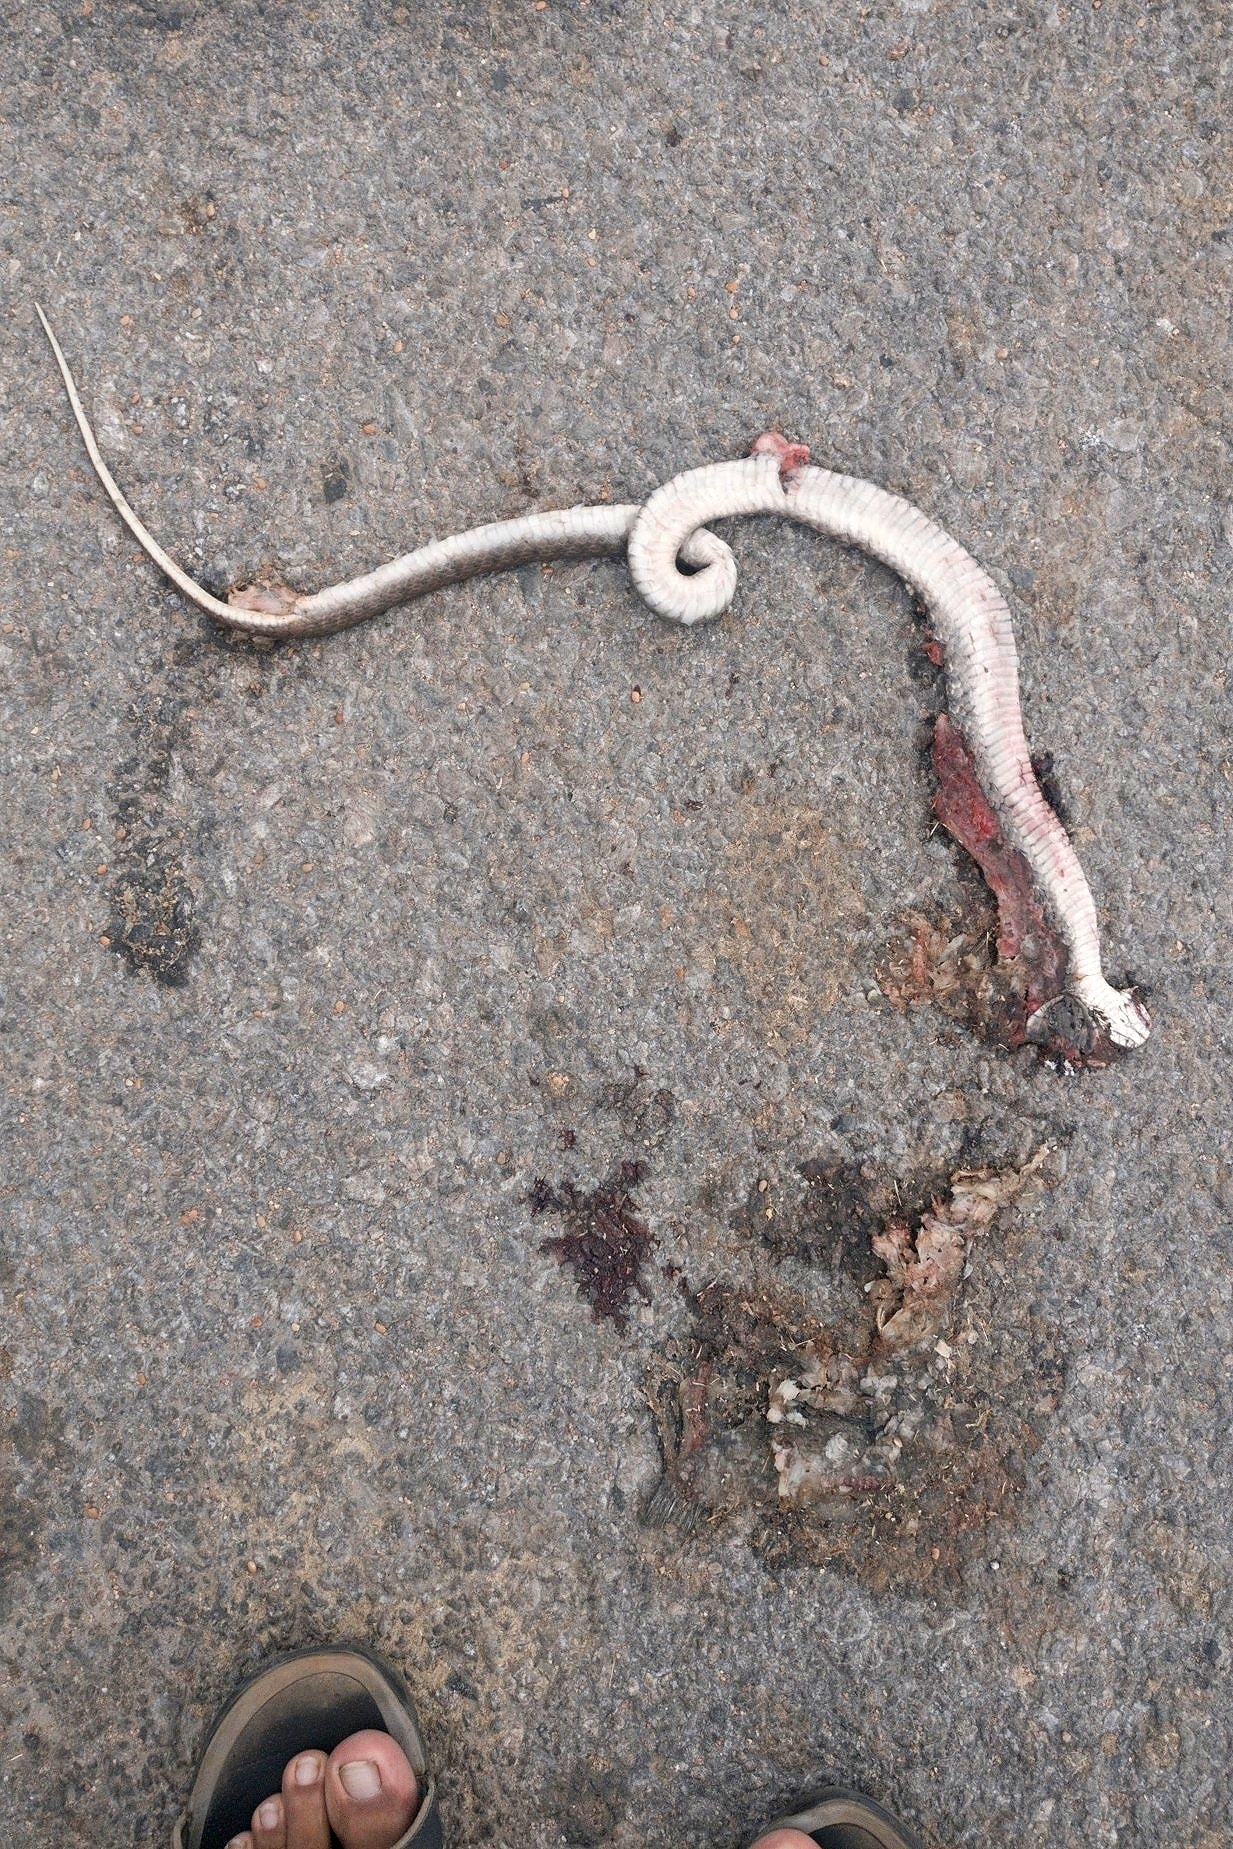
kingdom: Animalia
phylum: Chordata
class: Squamata
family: Colubridae
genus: Fowlea
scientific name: Fowlea piscator
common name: Asiatic water snake
